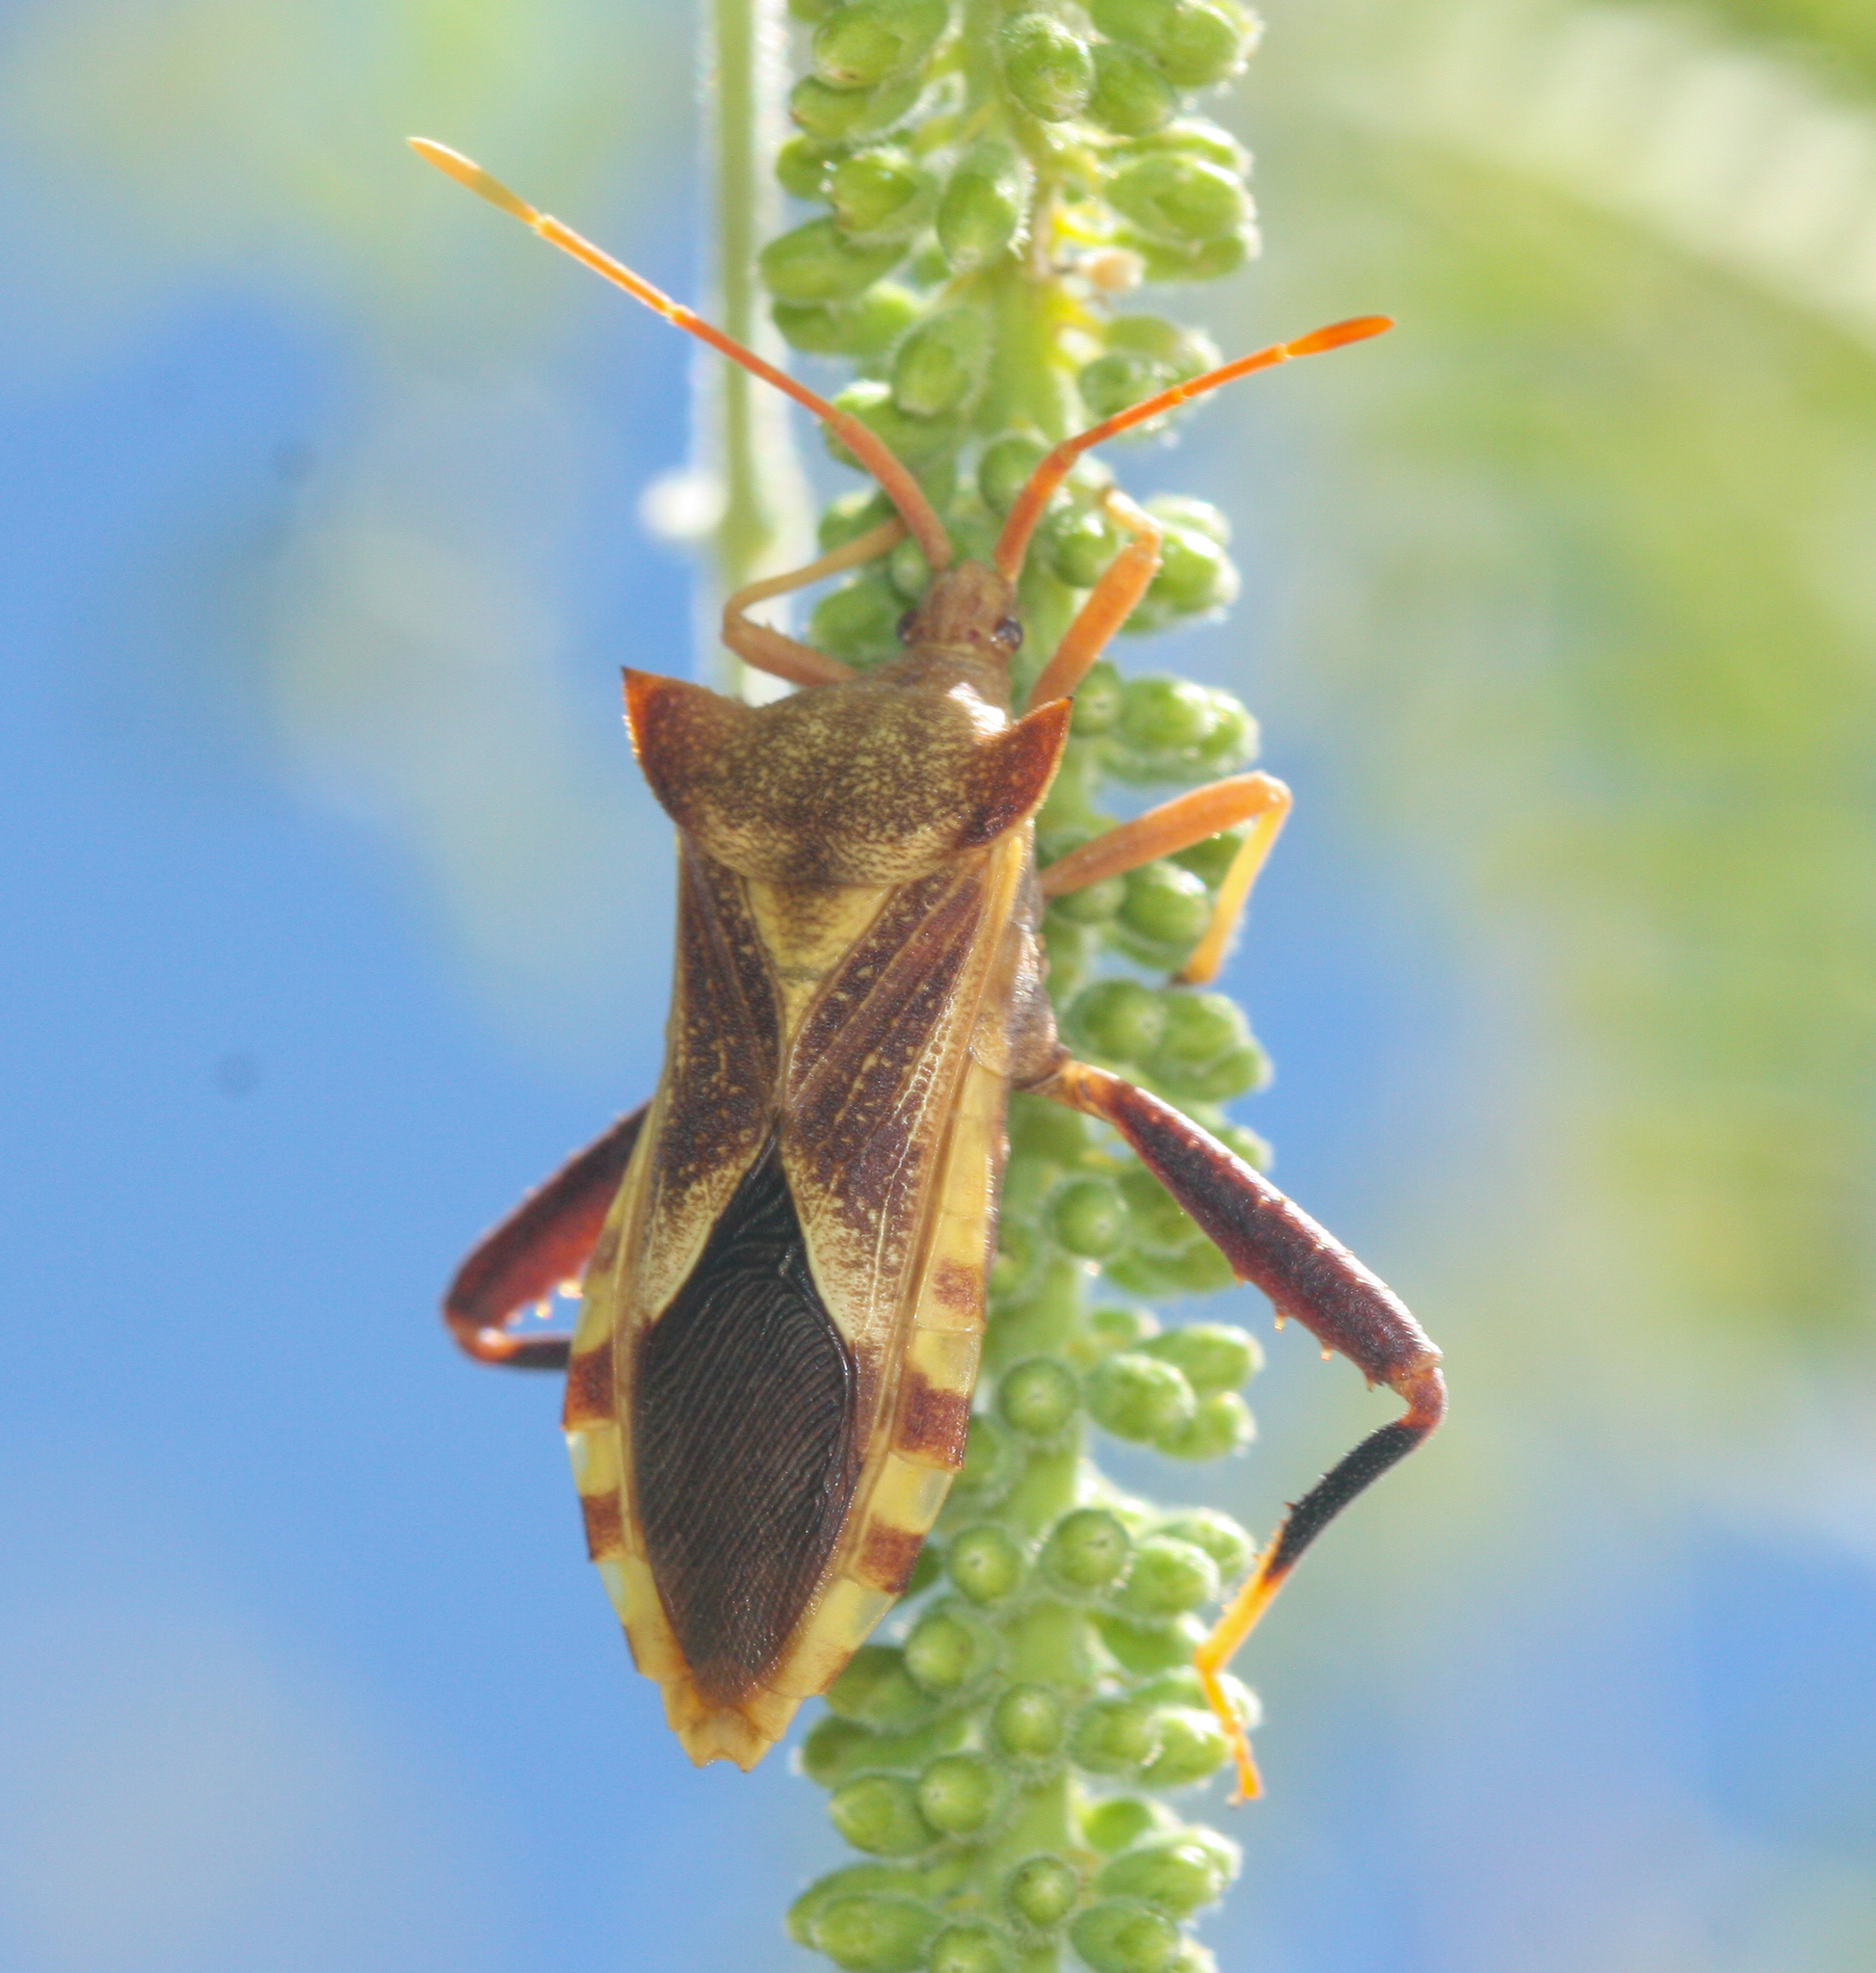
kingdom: Animalia
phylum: Arthropoda
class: Insecta
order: Hemiptera
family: Coreidae
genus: Mozena
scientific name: Mozena arizonensis
